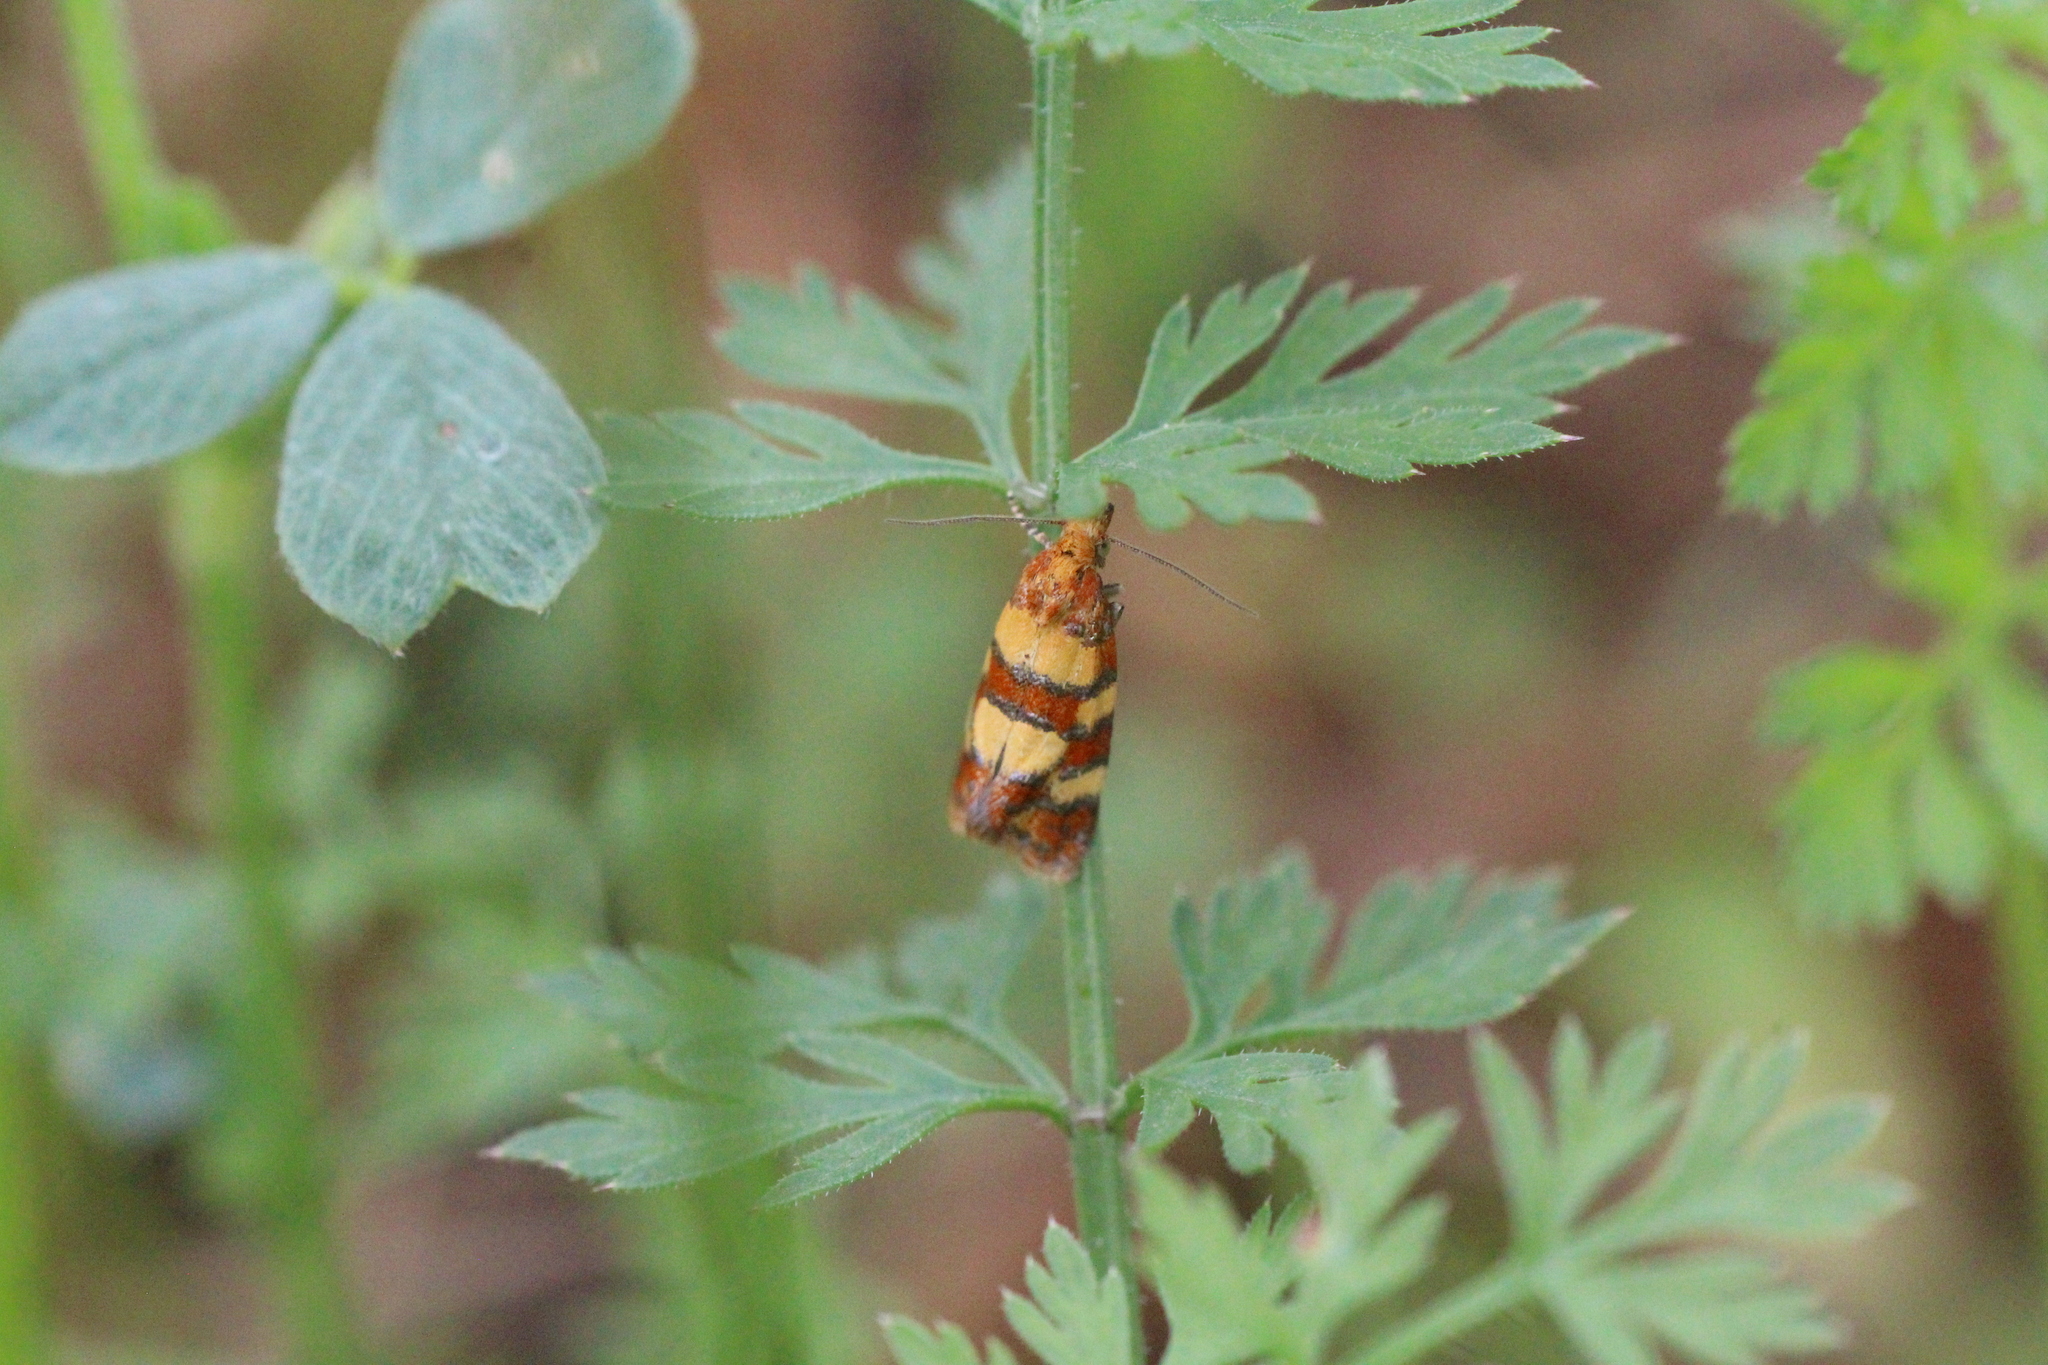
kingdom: Animalia
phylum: Arthropoda
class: Insecta
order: Lepidoptera
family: Tortricidae
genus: Aethes
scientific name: Aethes tesserana
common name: Downland conch
